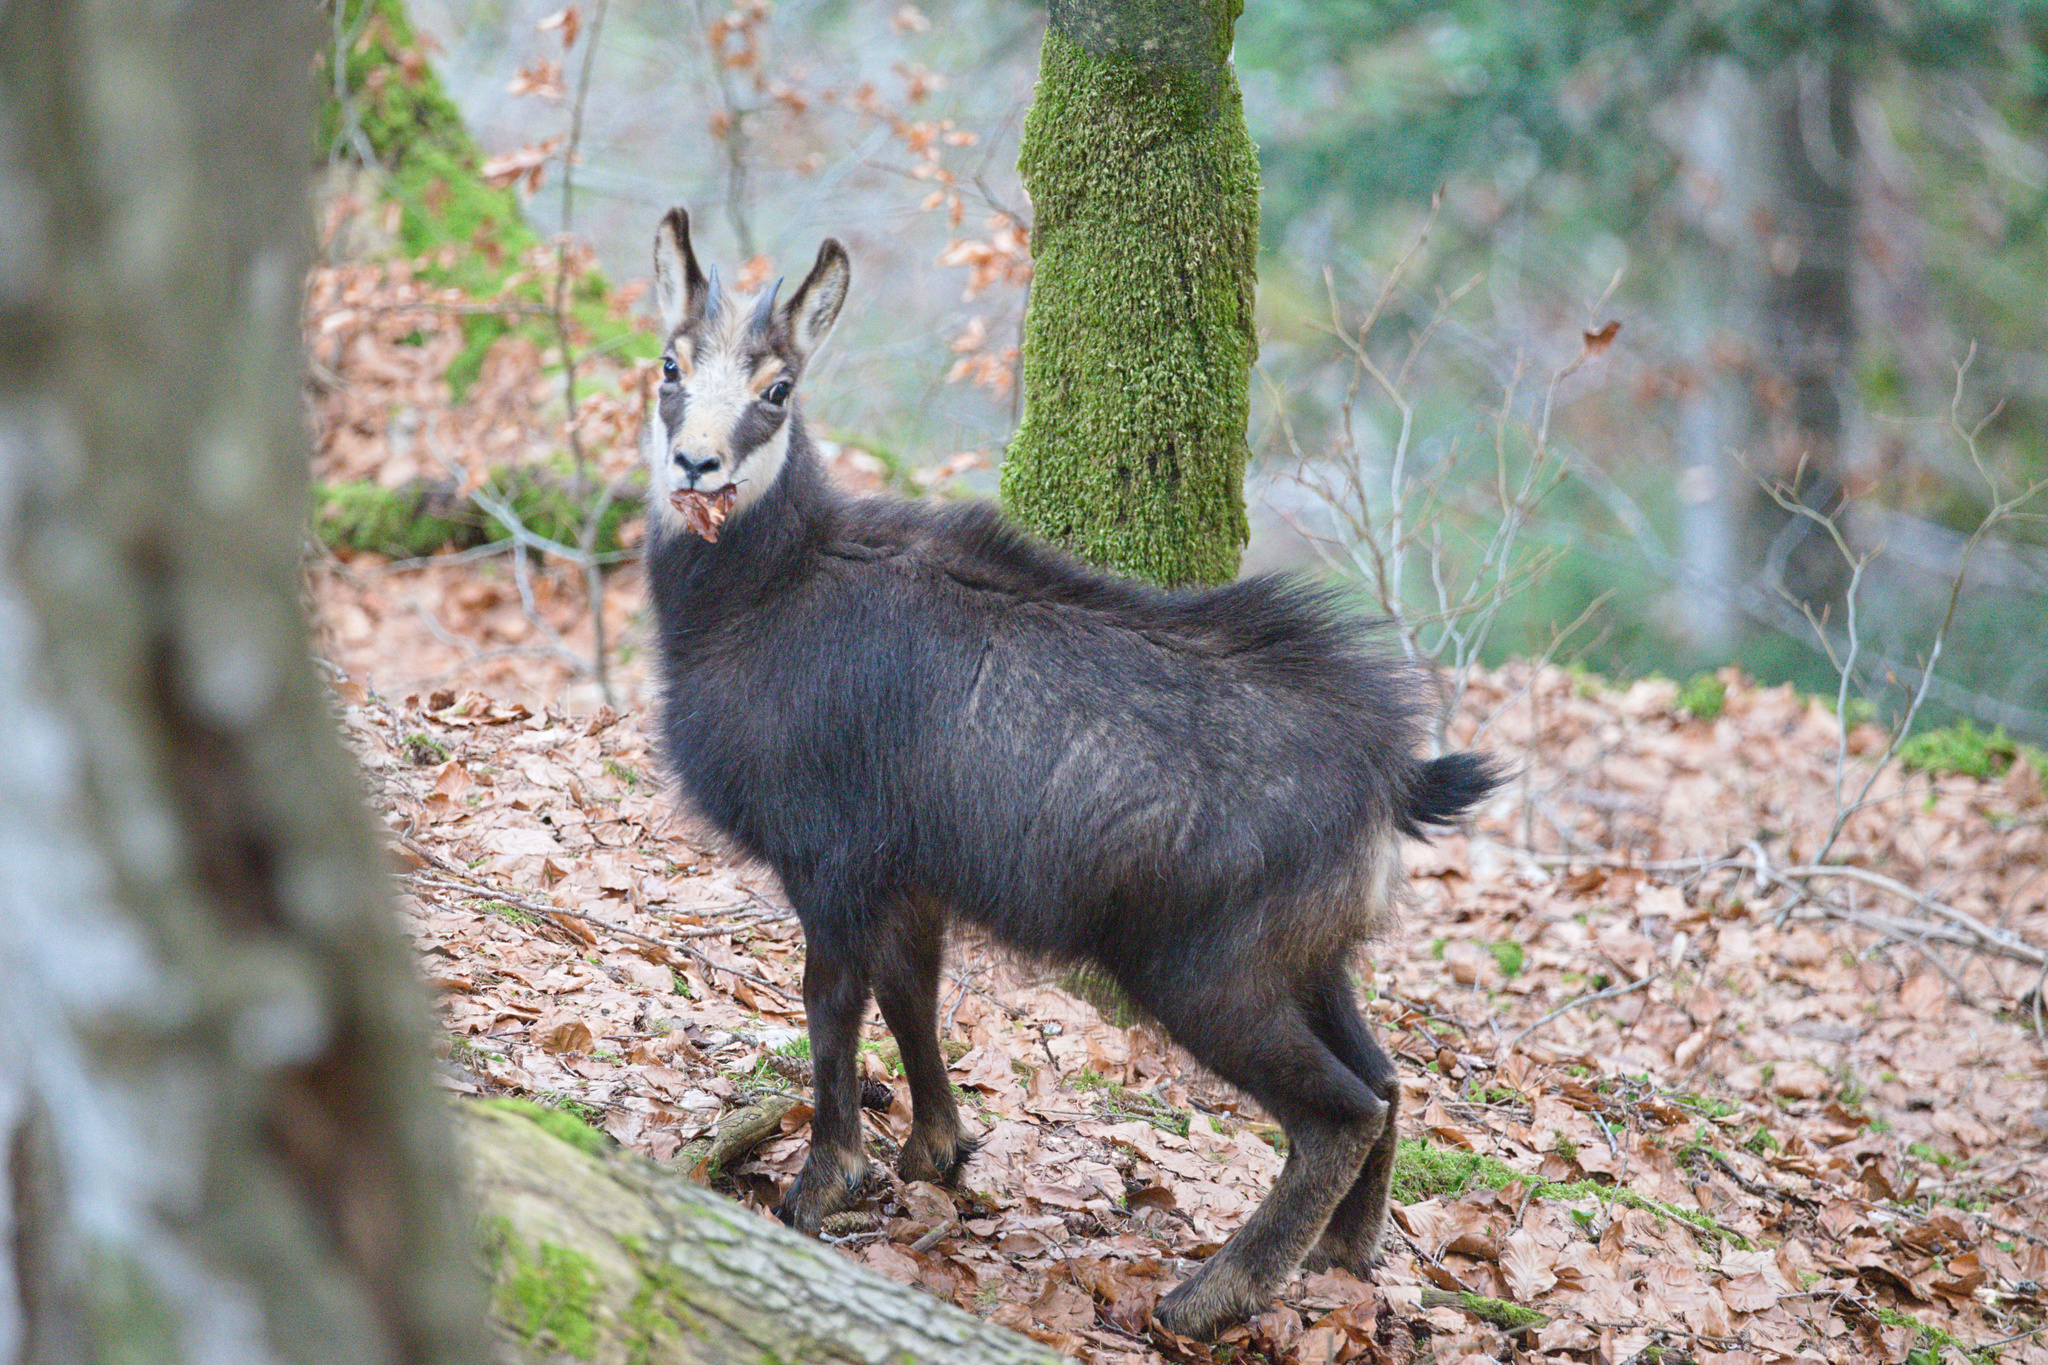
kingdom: Animalia
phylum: Chordata
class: Mammalia
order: Artiodactyla
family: Bovidae
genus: Rupicapra
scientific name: Rupicapra rupicapra
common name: Chamois
